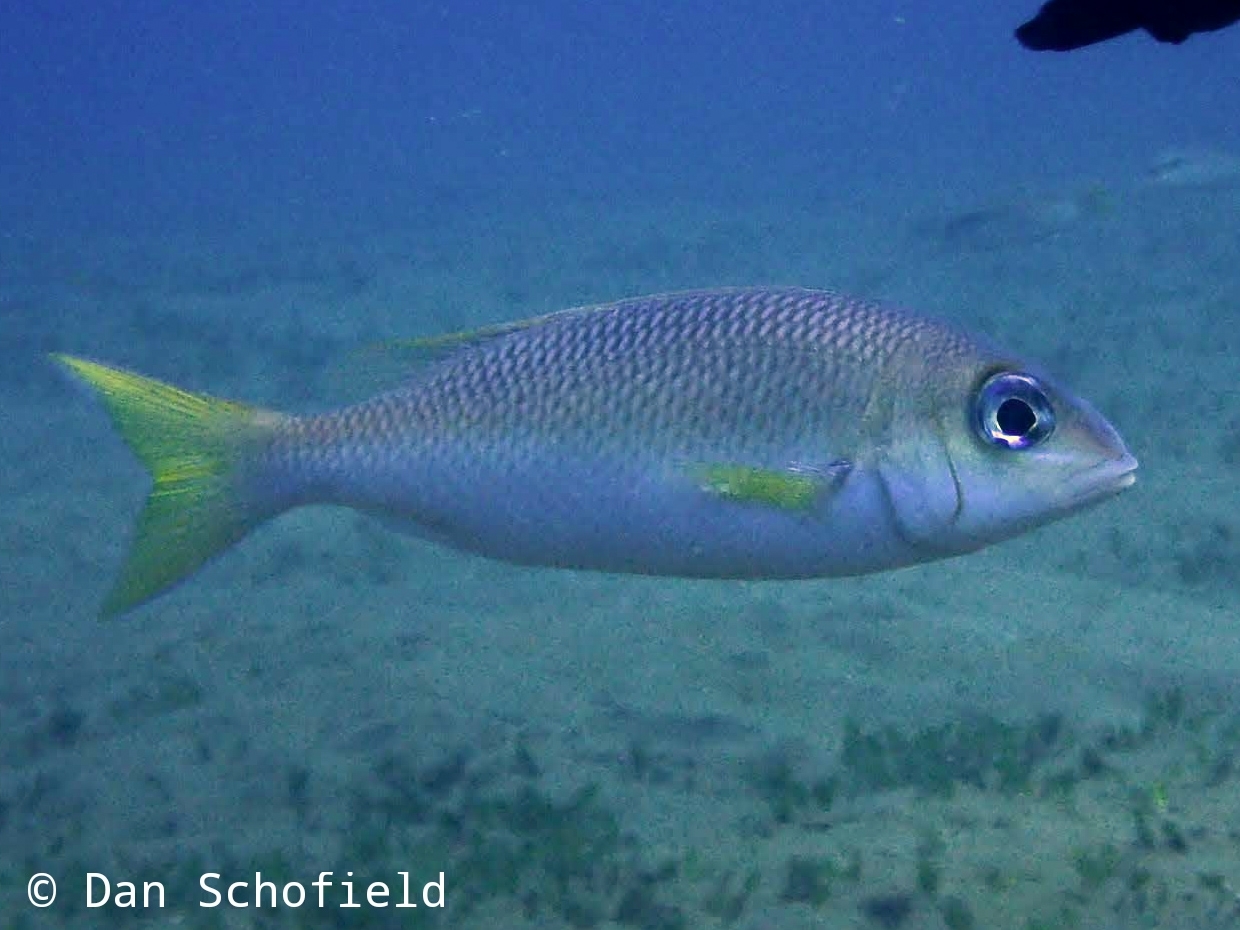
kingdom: Animalia
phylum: Chordata
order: Perciformes
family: Nemipteridae
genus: Scolopsis
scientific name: Scolopsis affinis
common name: Peters' monocle bream
